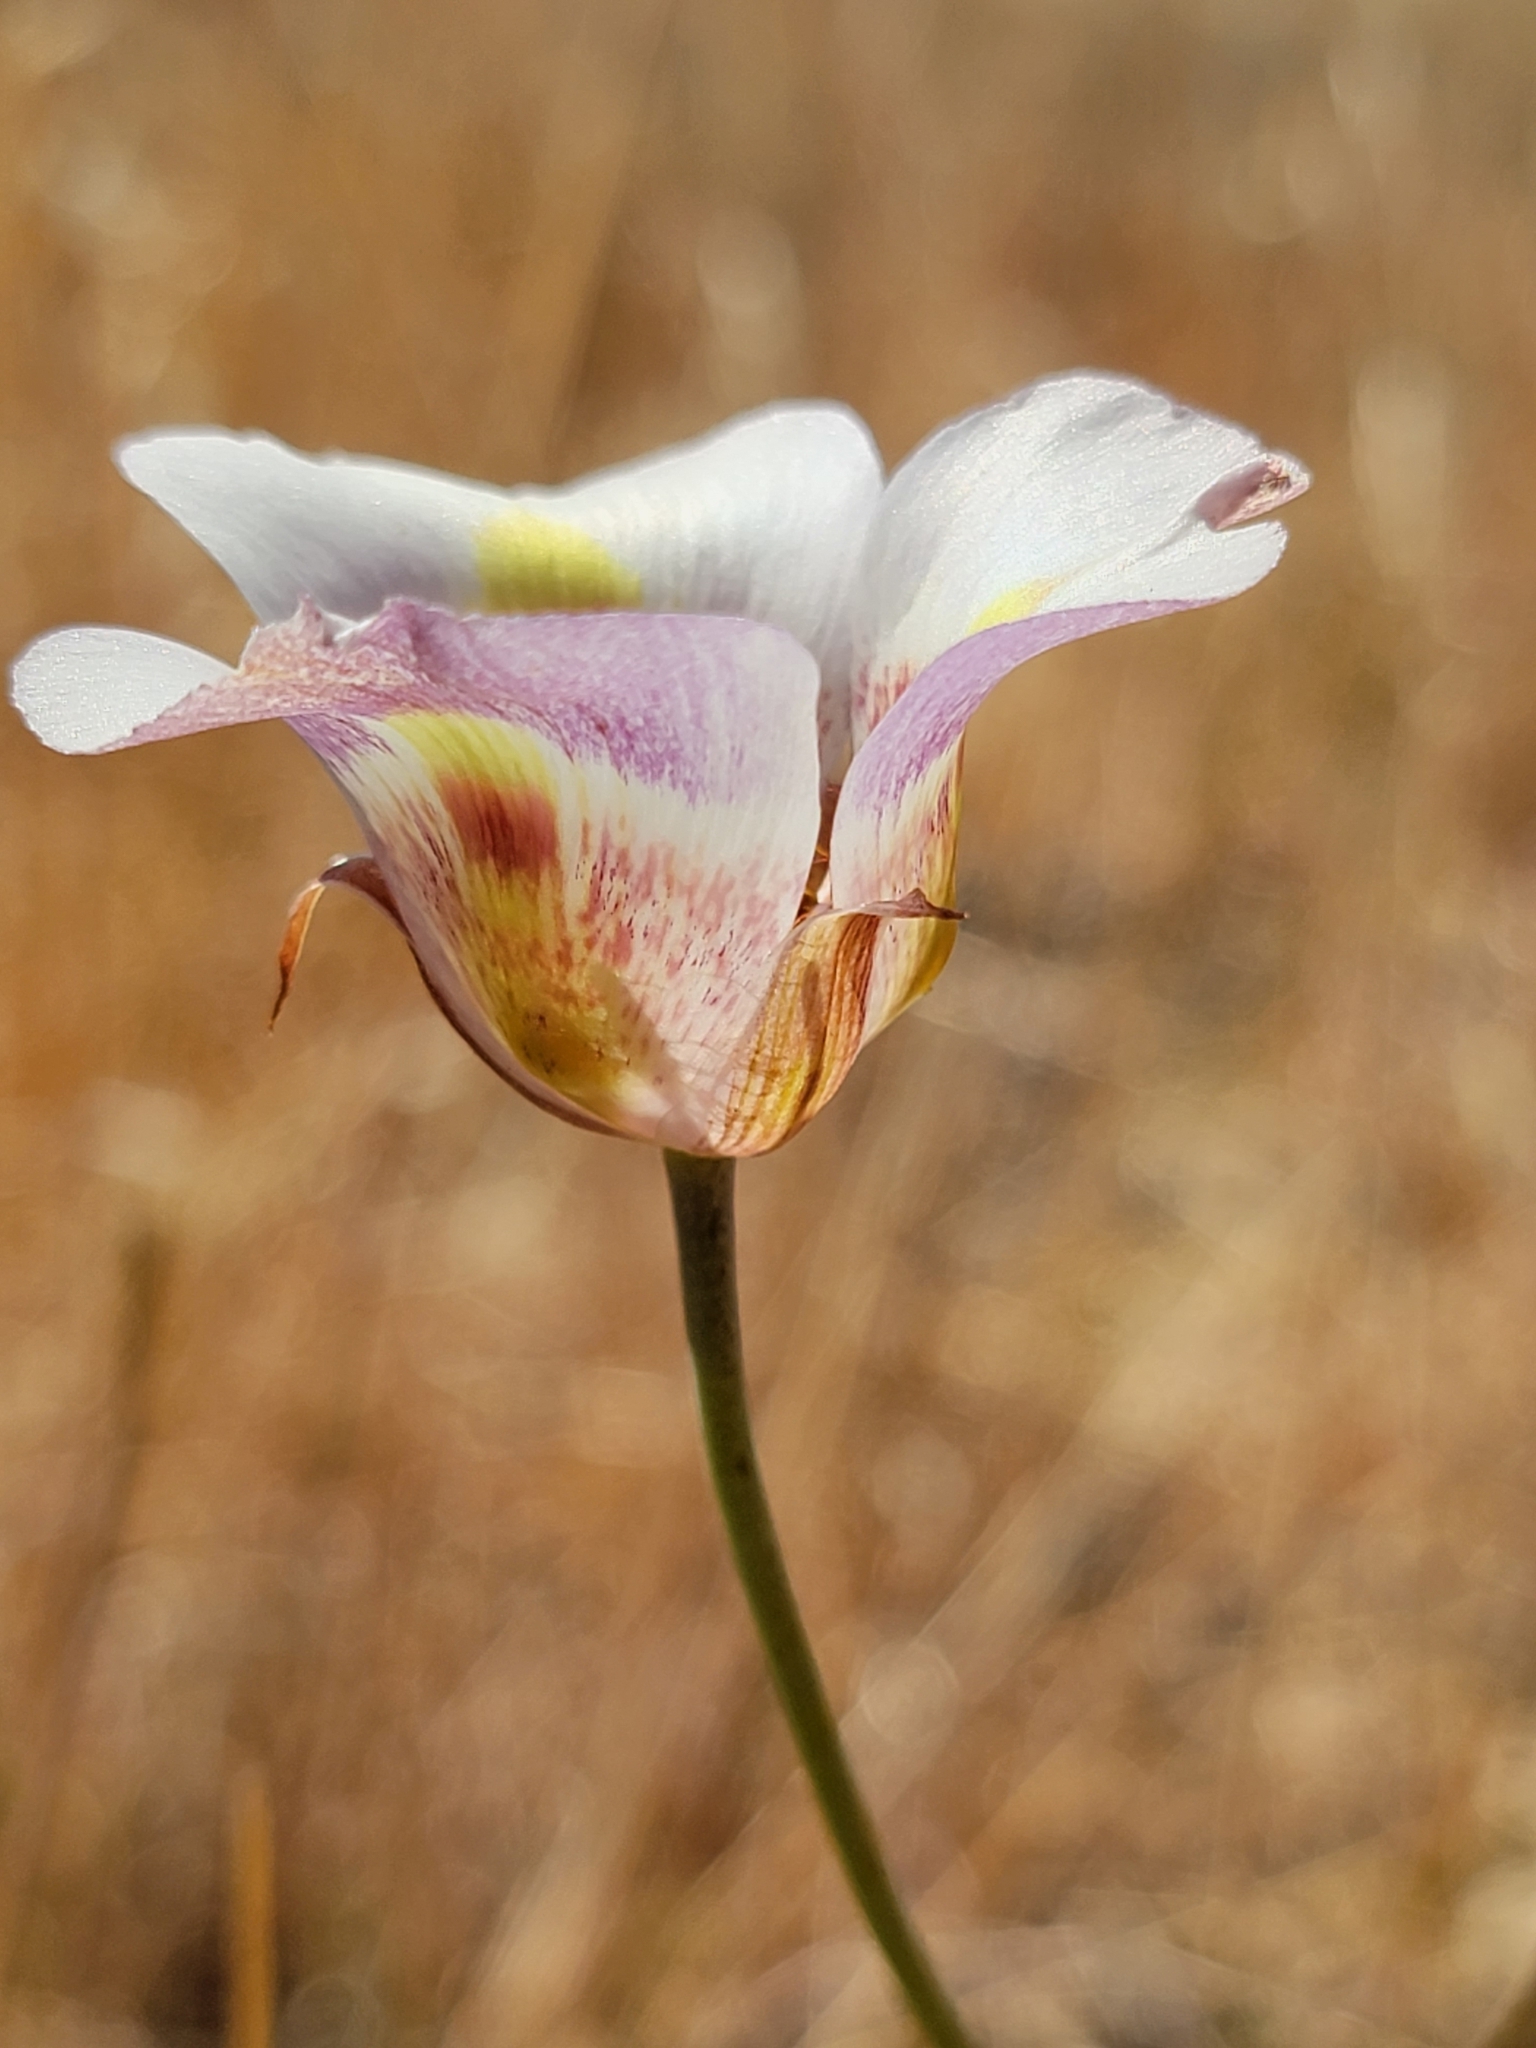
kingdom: Plantae
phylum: Tracheophyta
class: Liliopsida
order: Liliales
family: Liliaceae
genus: Calochortus
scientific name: Calochortus argillosus
